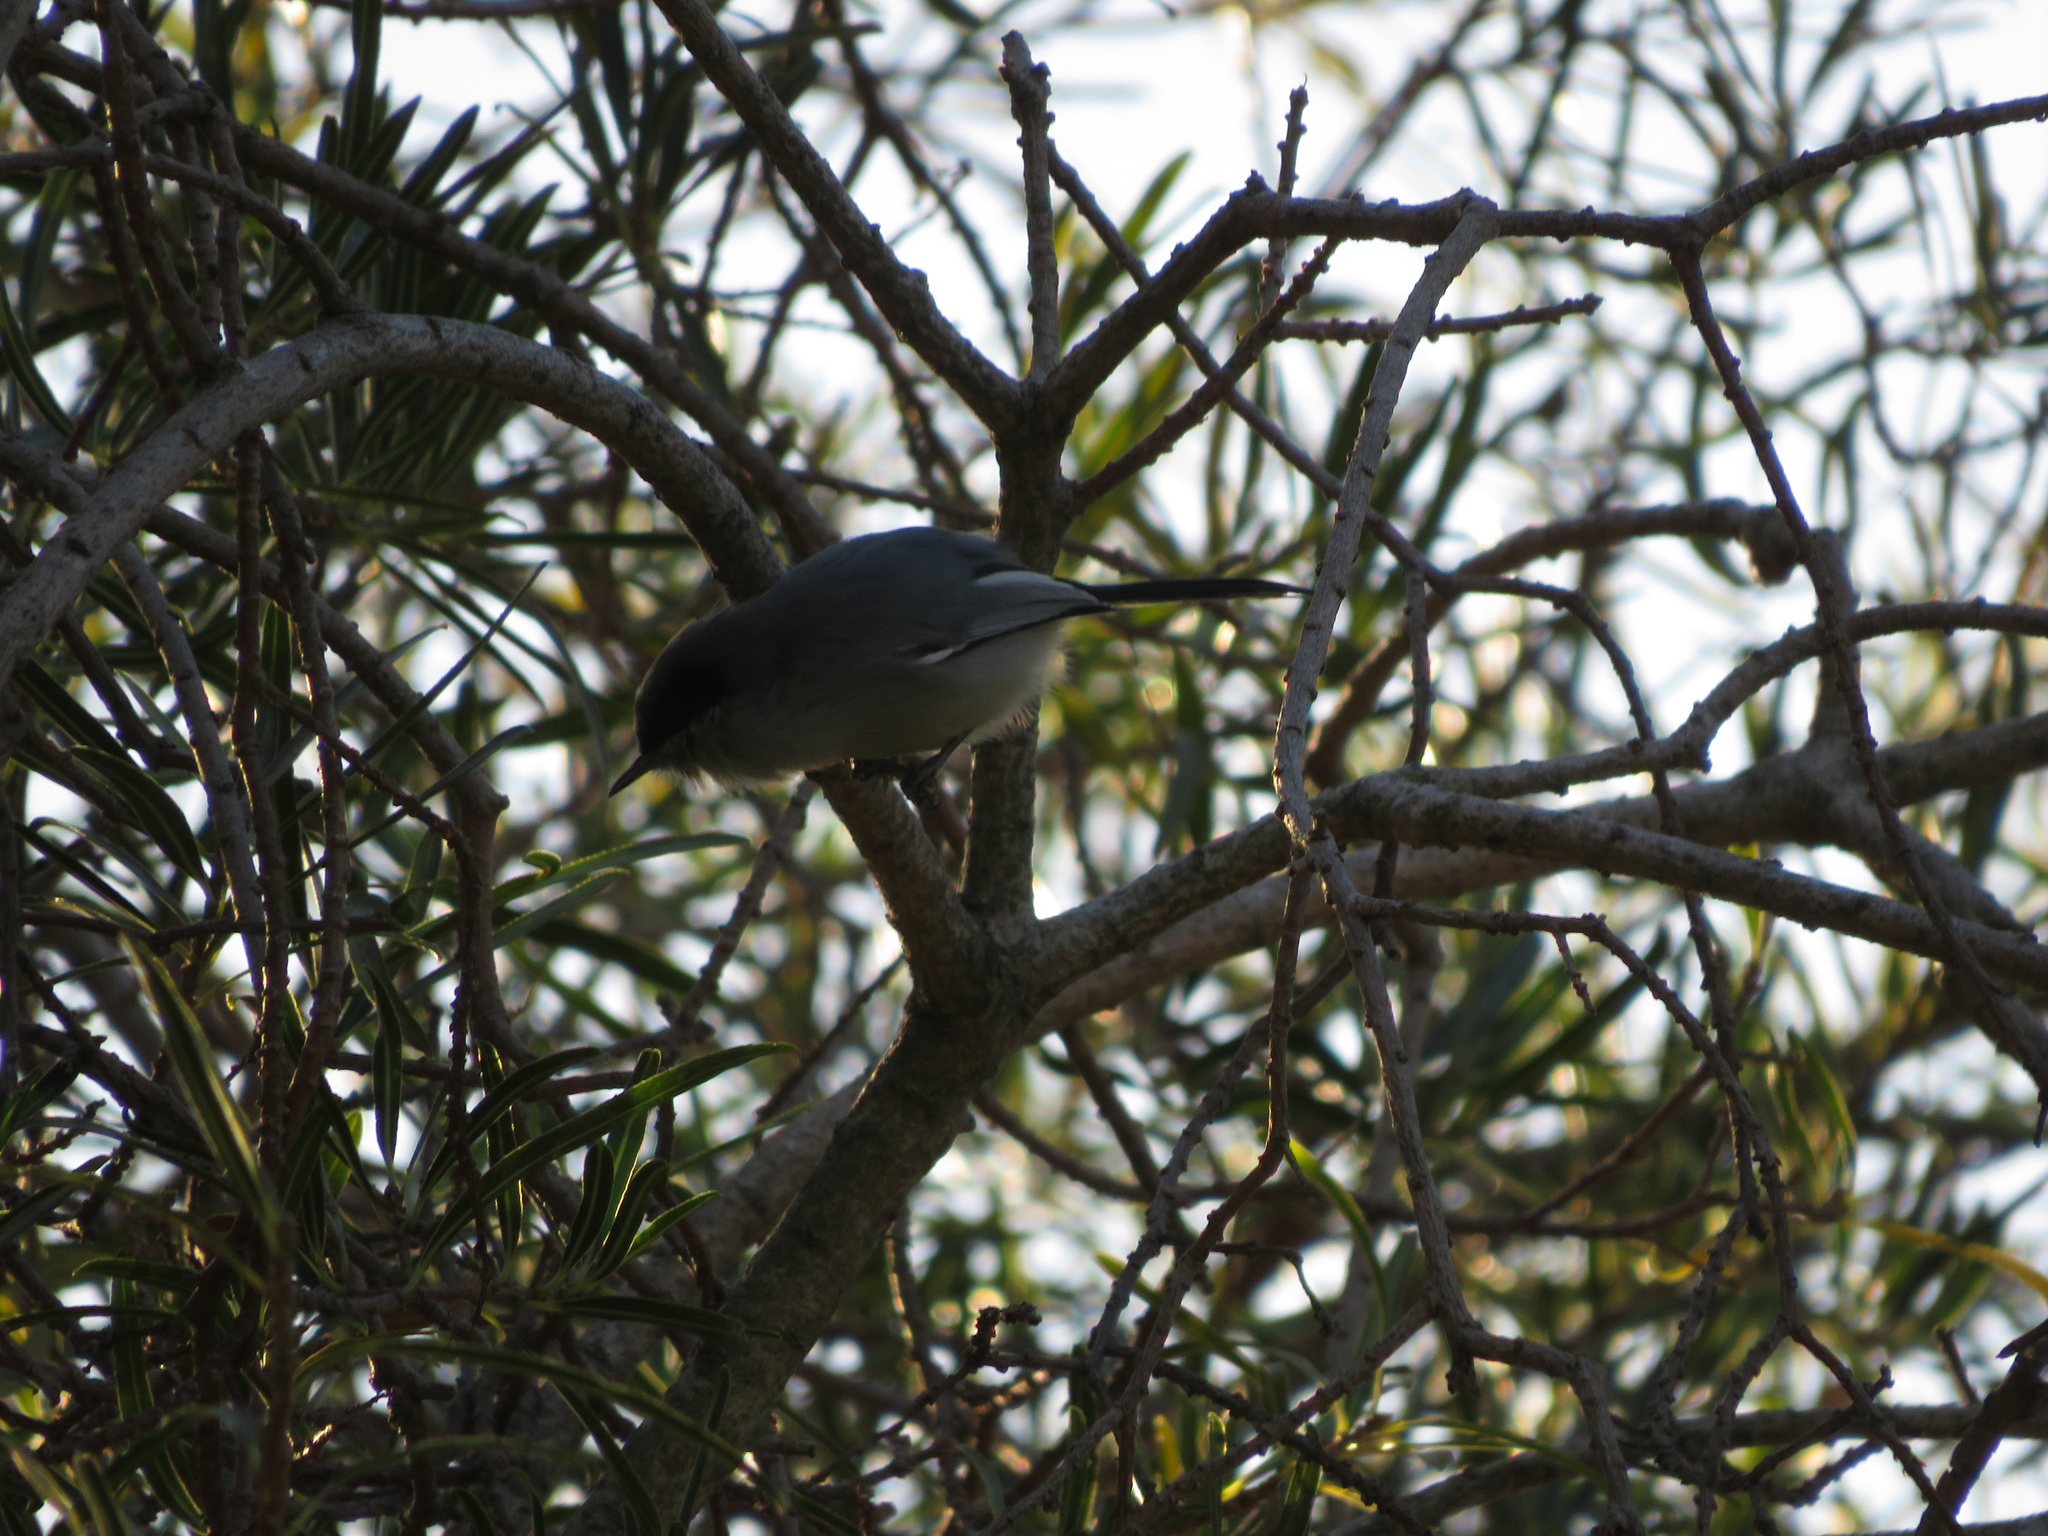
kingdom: Animalia
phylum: Chordata
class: Aves
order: Passeriformes
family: Polioptilidae
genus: Polioptila
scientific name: Polioptila dumicola
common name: Masked gnatcatcher
